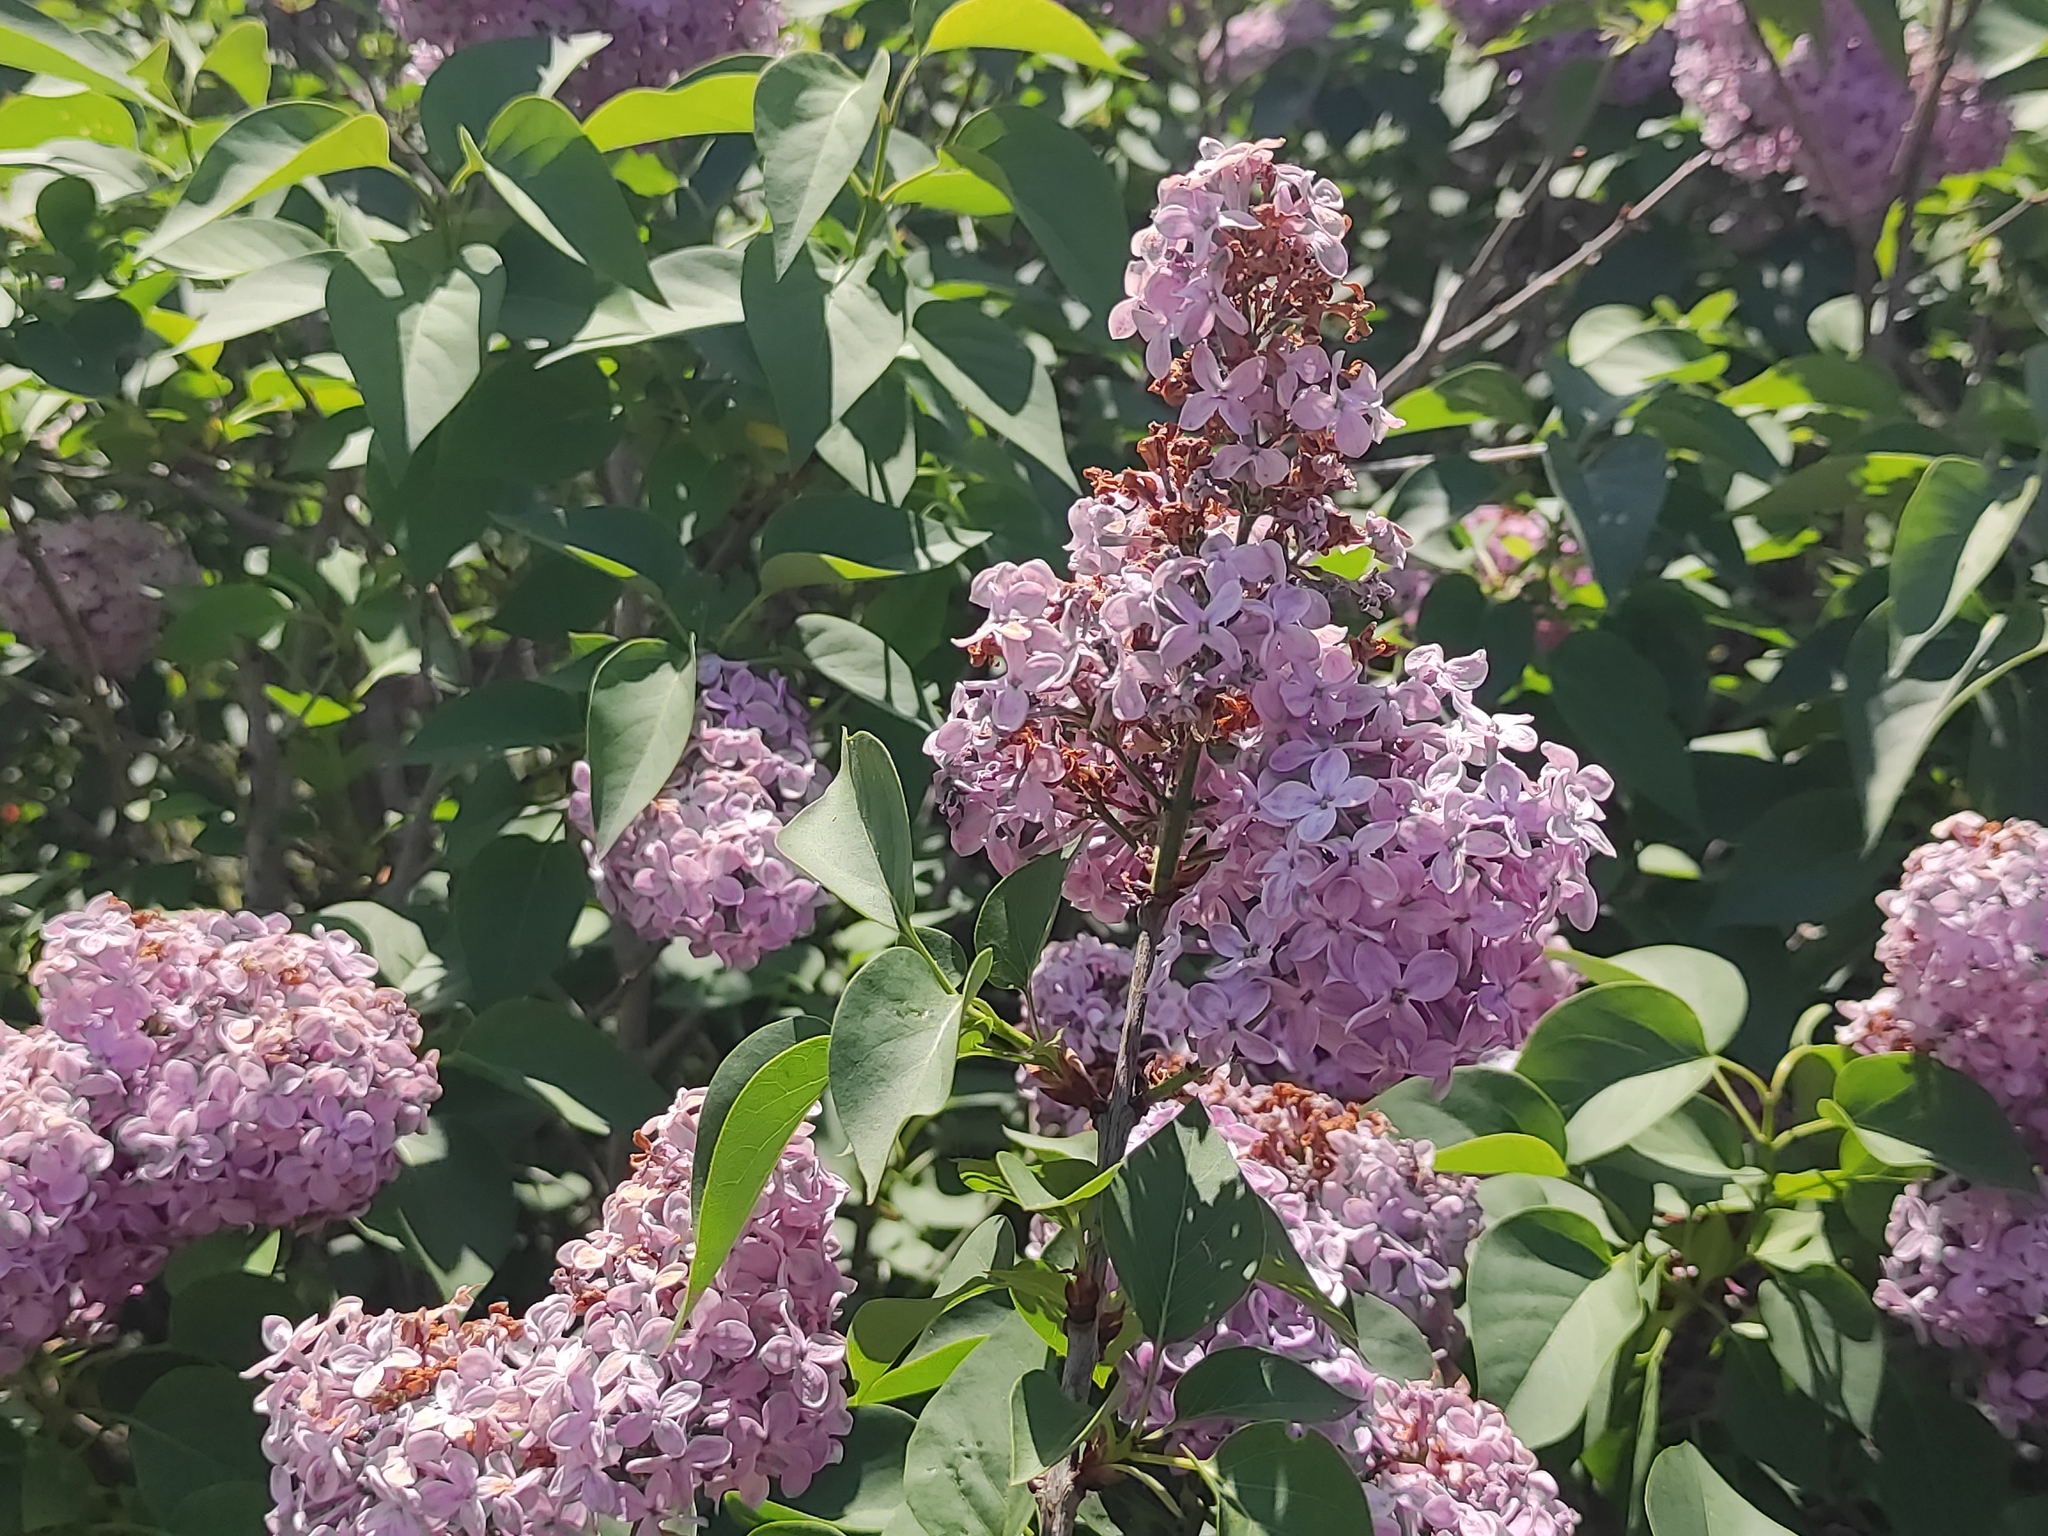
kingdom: Plantae
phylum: Tracheophyta
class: Magnoliopsida
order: Lamiales
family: Oleaceae
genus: Syringa
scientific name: Syringa vulgaris
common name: Common lilac
